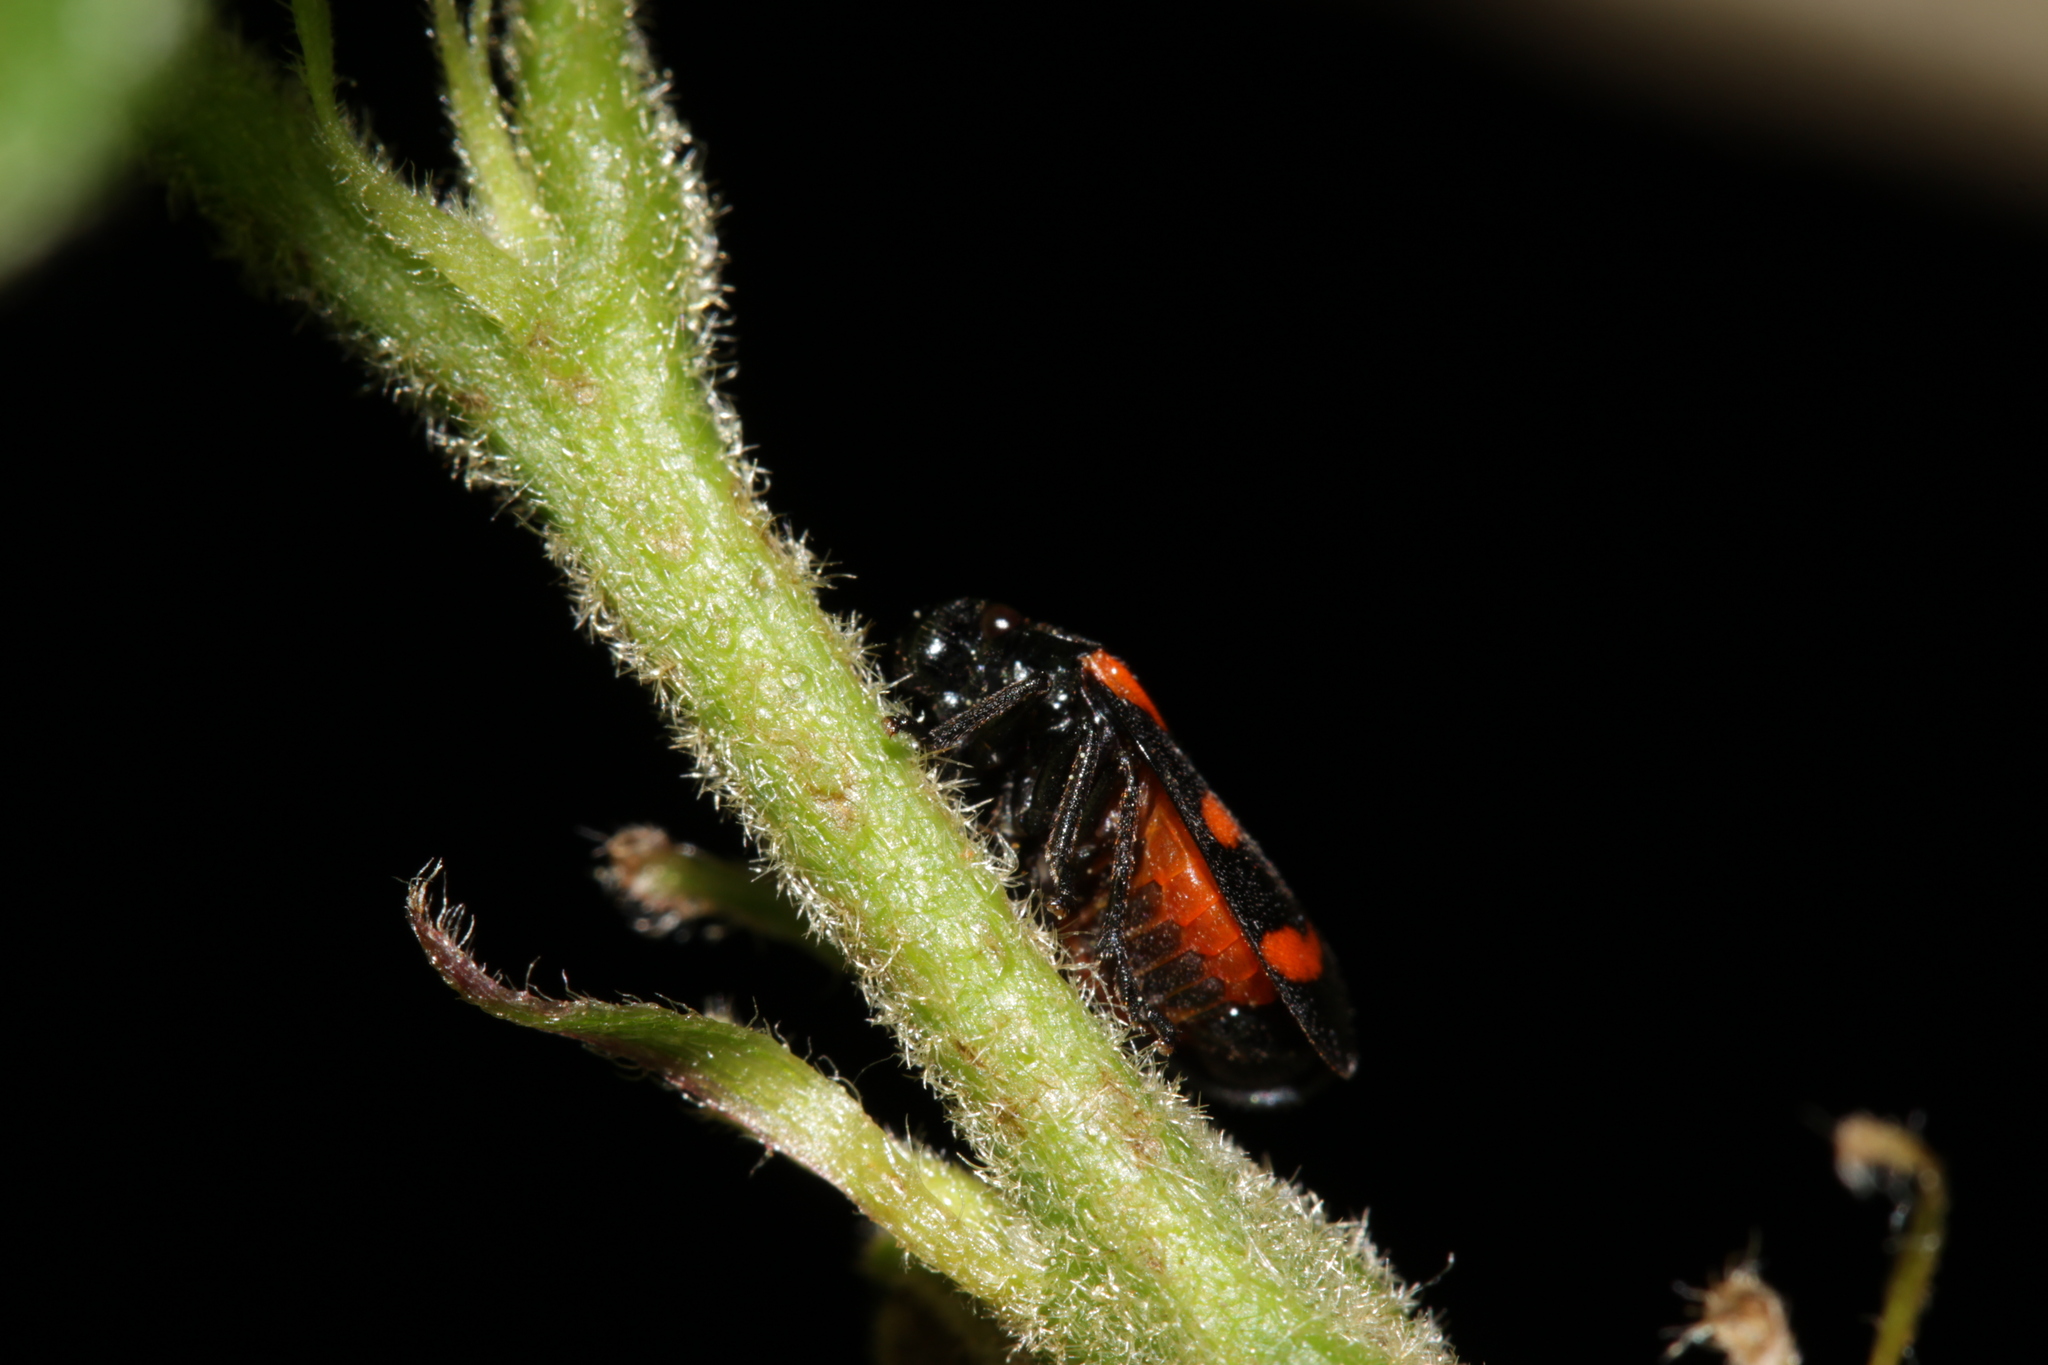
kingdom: Animalia
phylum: Arthropoda
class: Insecta
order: Hemiptera
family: Cercopidae
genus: Cercopis
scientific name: Cercopis arcuata
